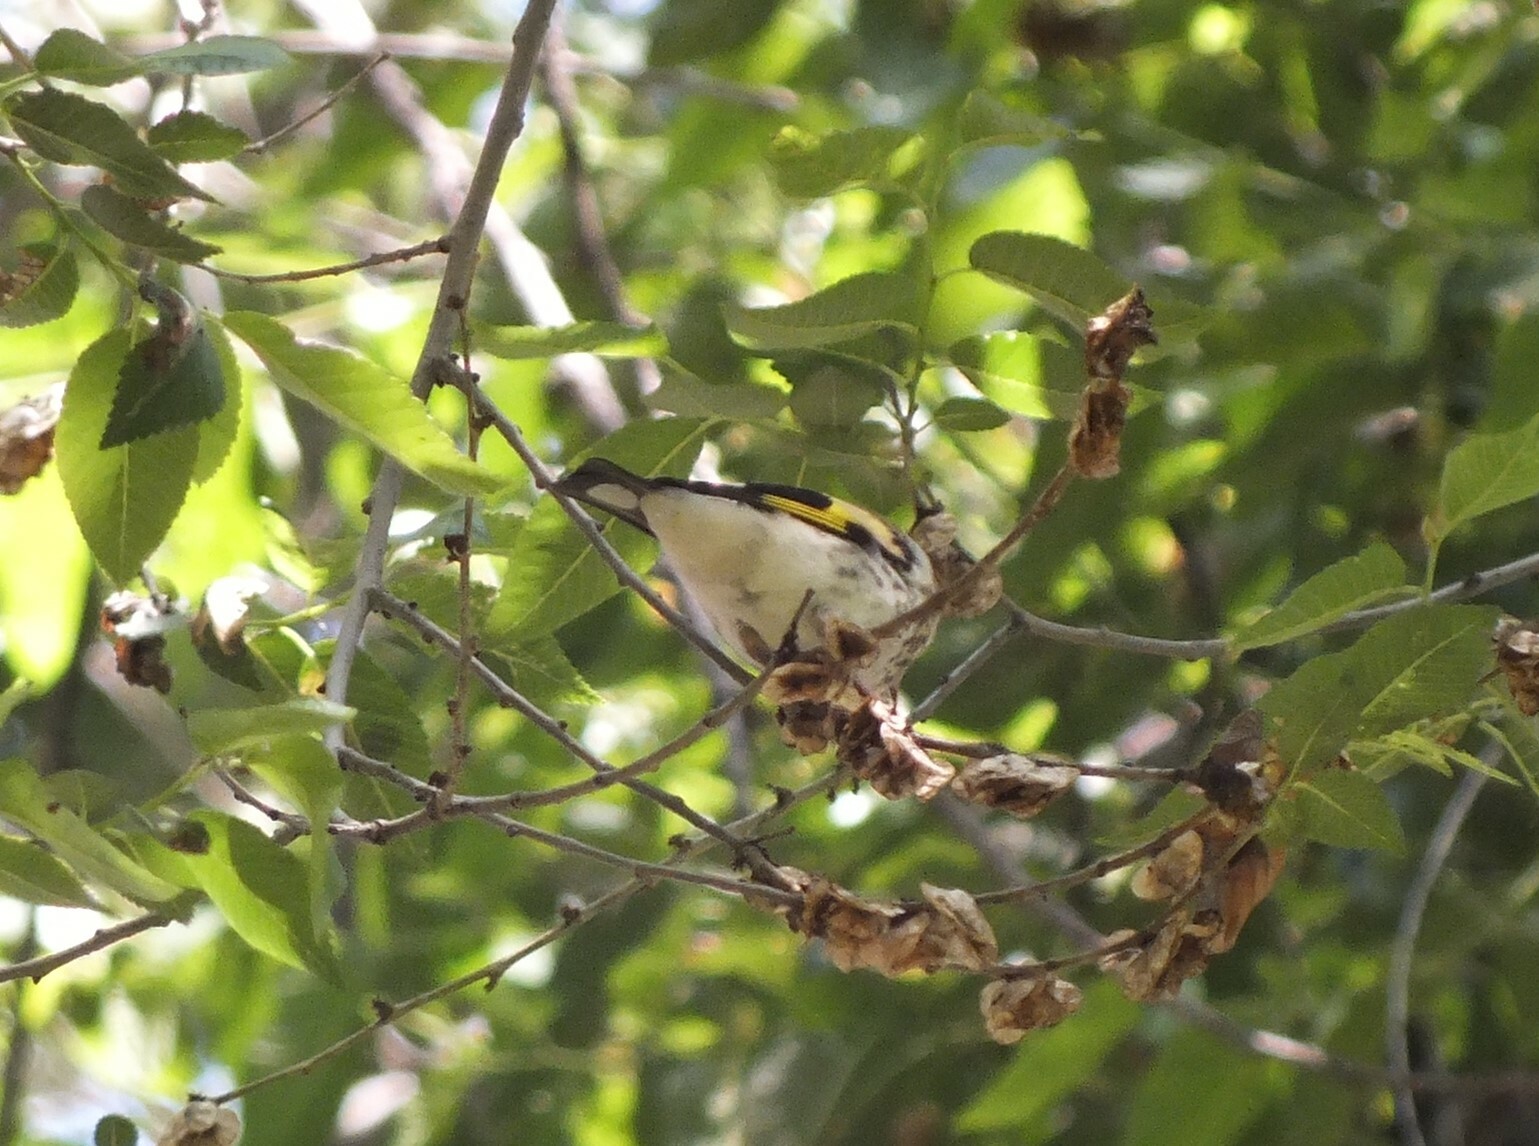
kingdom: Animalia
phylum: Chordata
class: Aves
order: Passeriformes
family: Fringillidae
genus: Carduelis
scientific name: Carduelis carduelis
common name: European goldfinch
